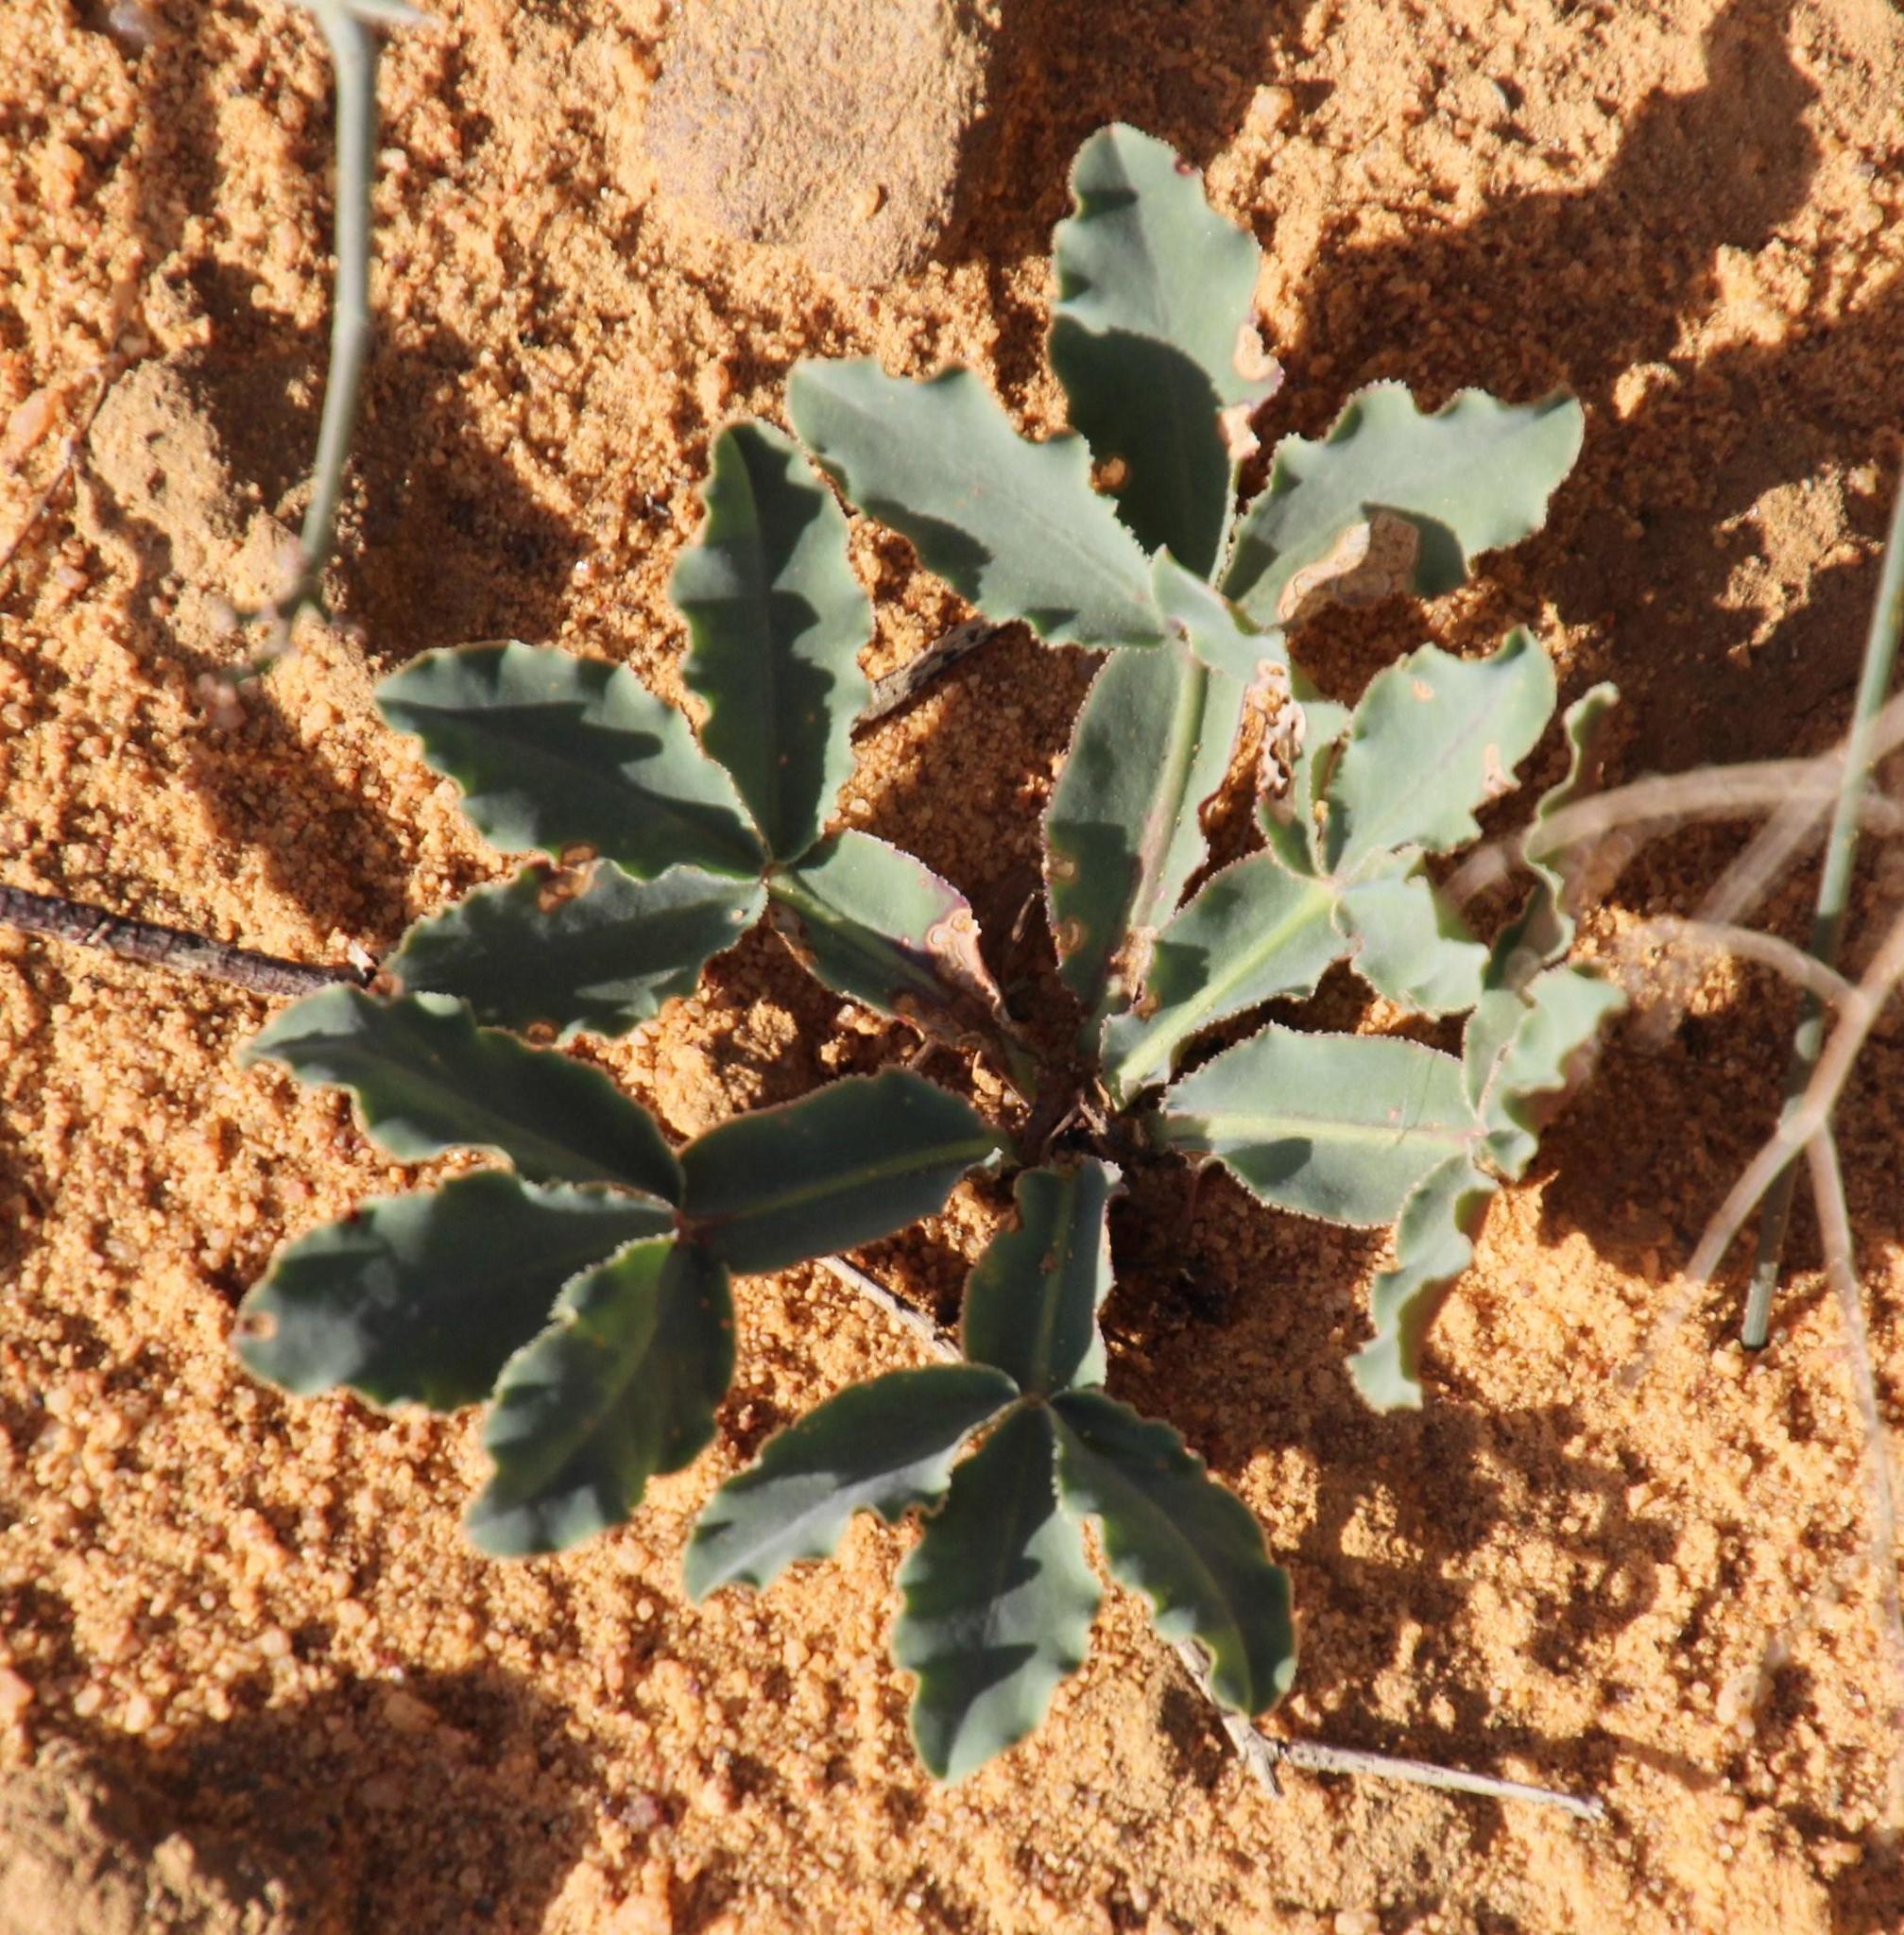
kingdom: Plantae
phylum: Tracheophyta
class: Magnoliopsida
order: Oxalidales
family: Oxalidaceae
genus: Oxalis
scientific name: Oxalis flava
